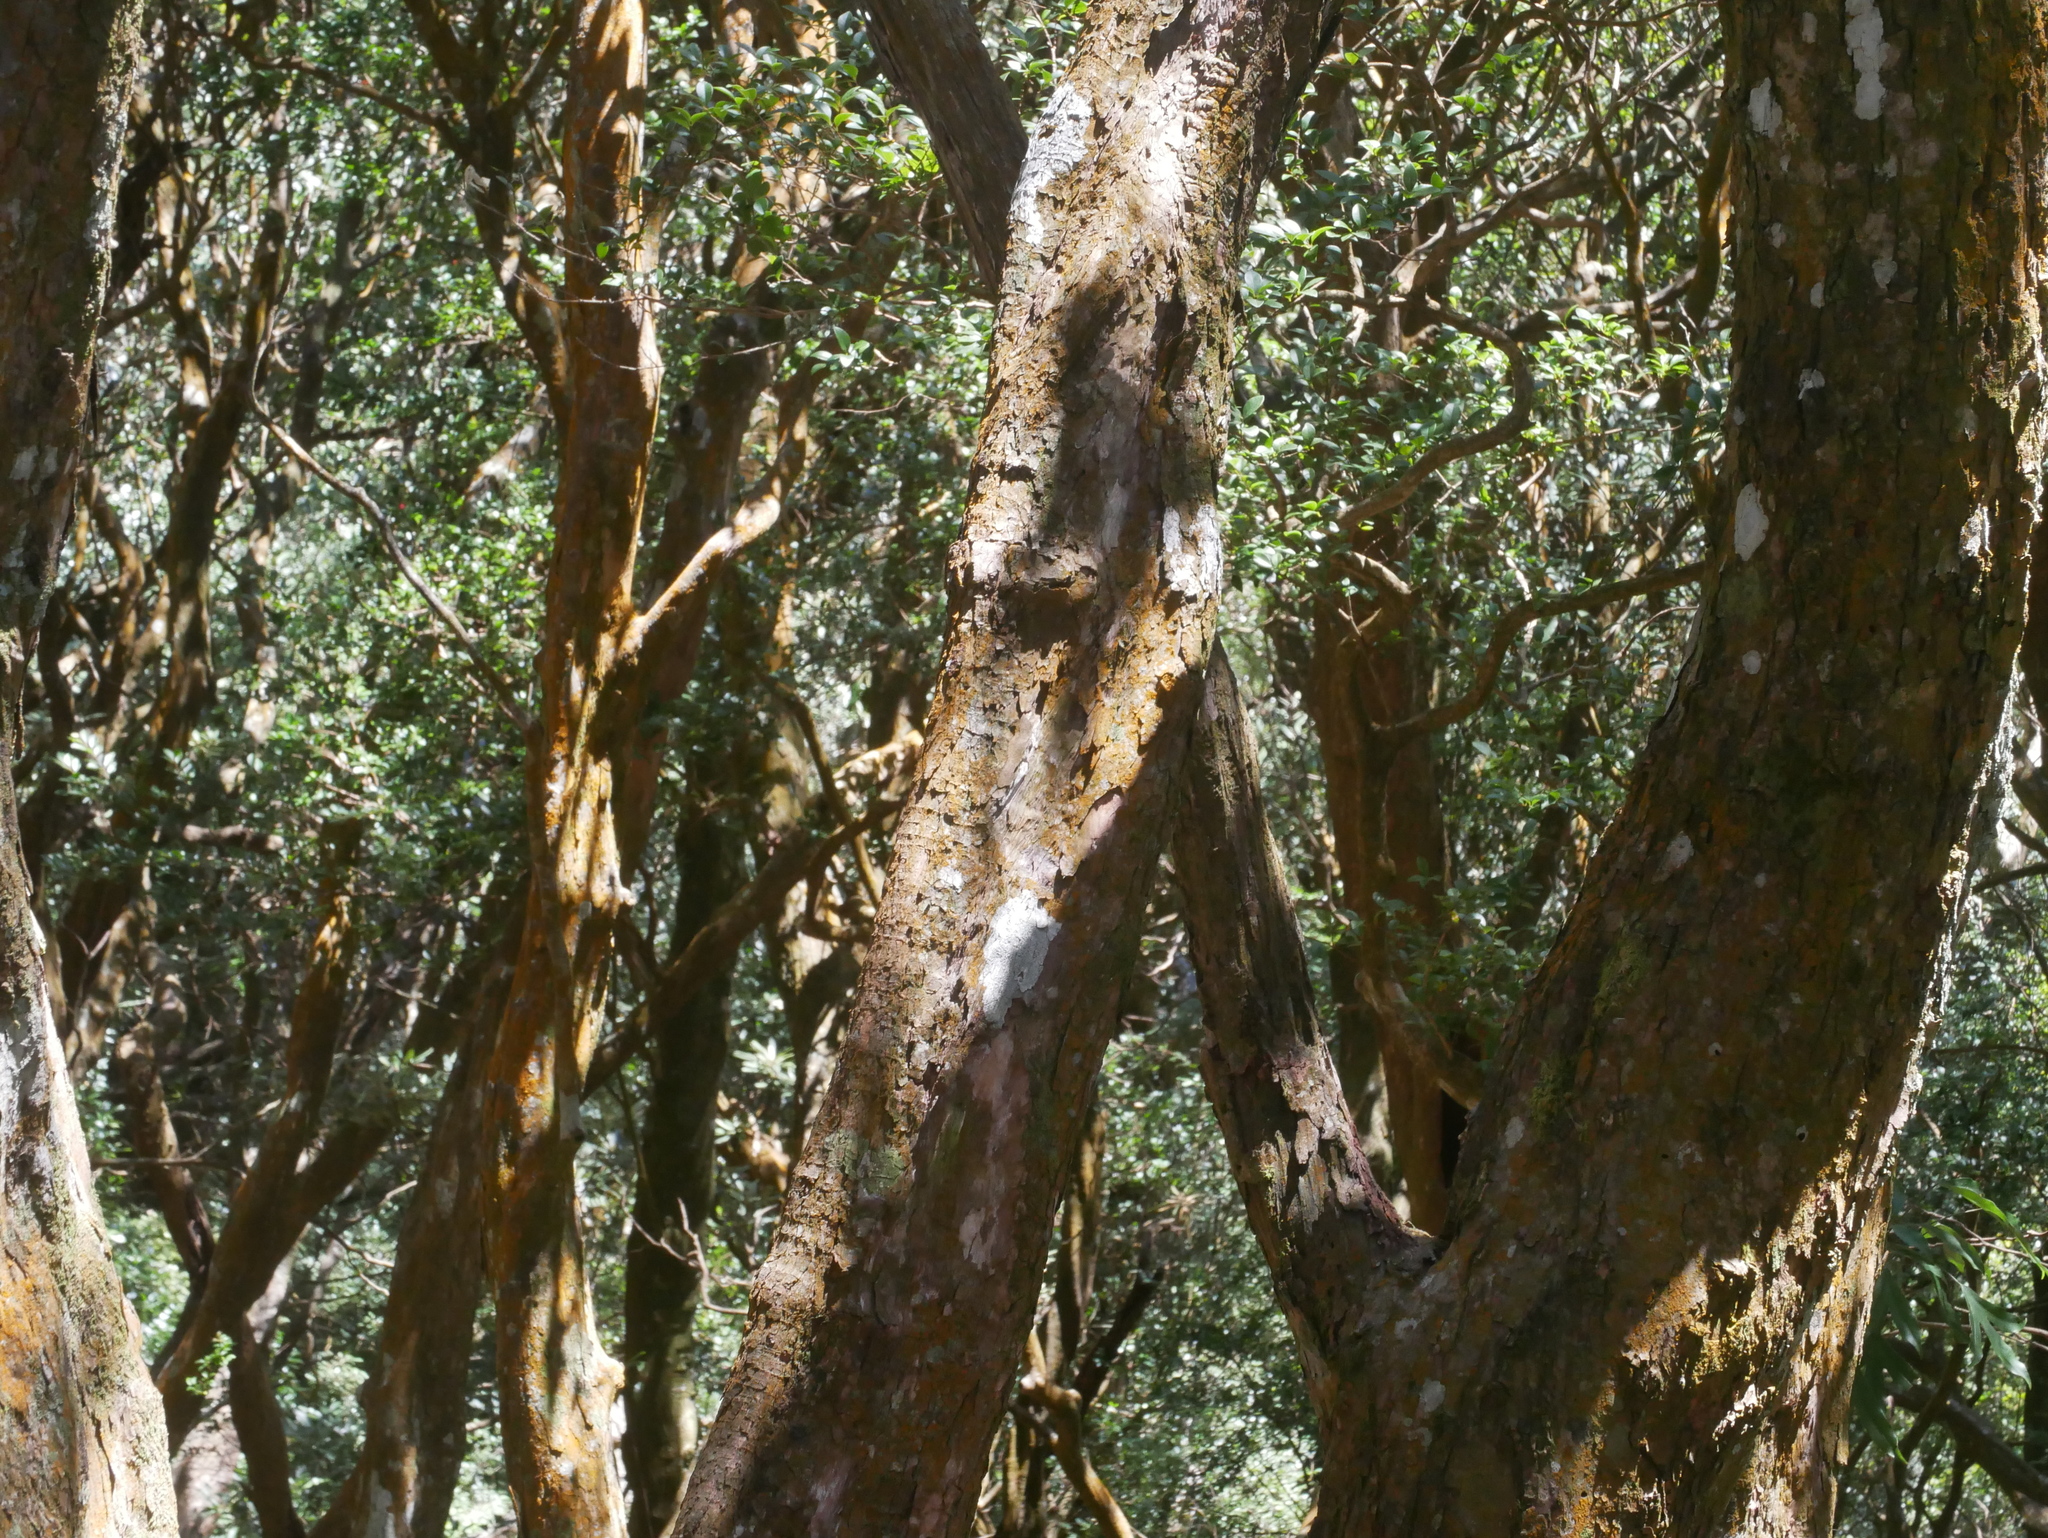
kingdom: Plantae
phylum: Tracheophyta
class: Magnoliopsida
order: Ericales
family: Ericaceae
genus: Rhododendron
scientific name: Rhododendron formosanum
